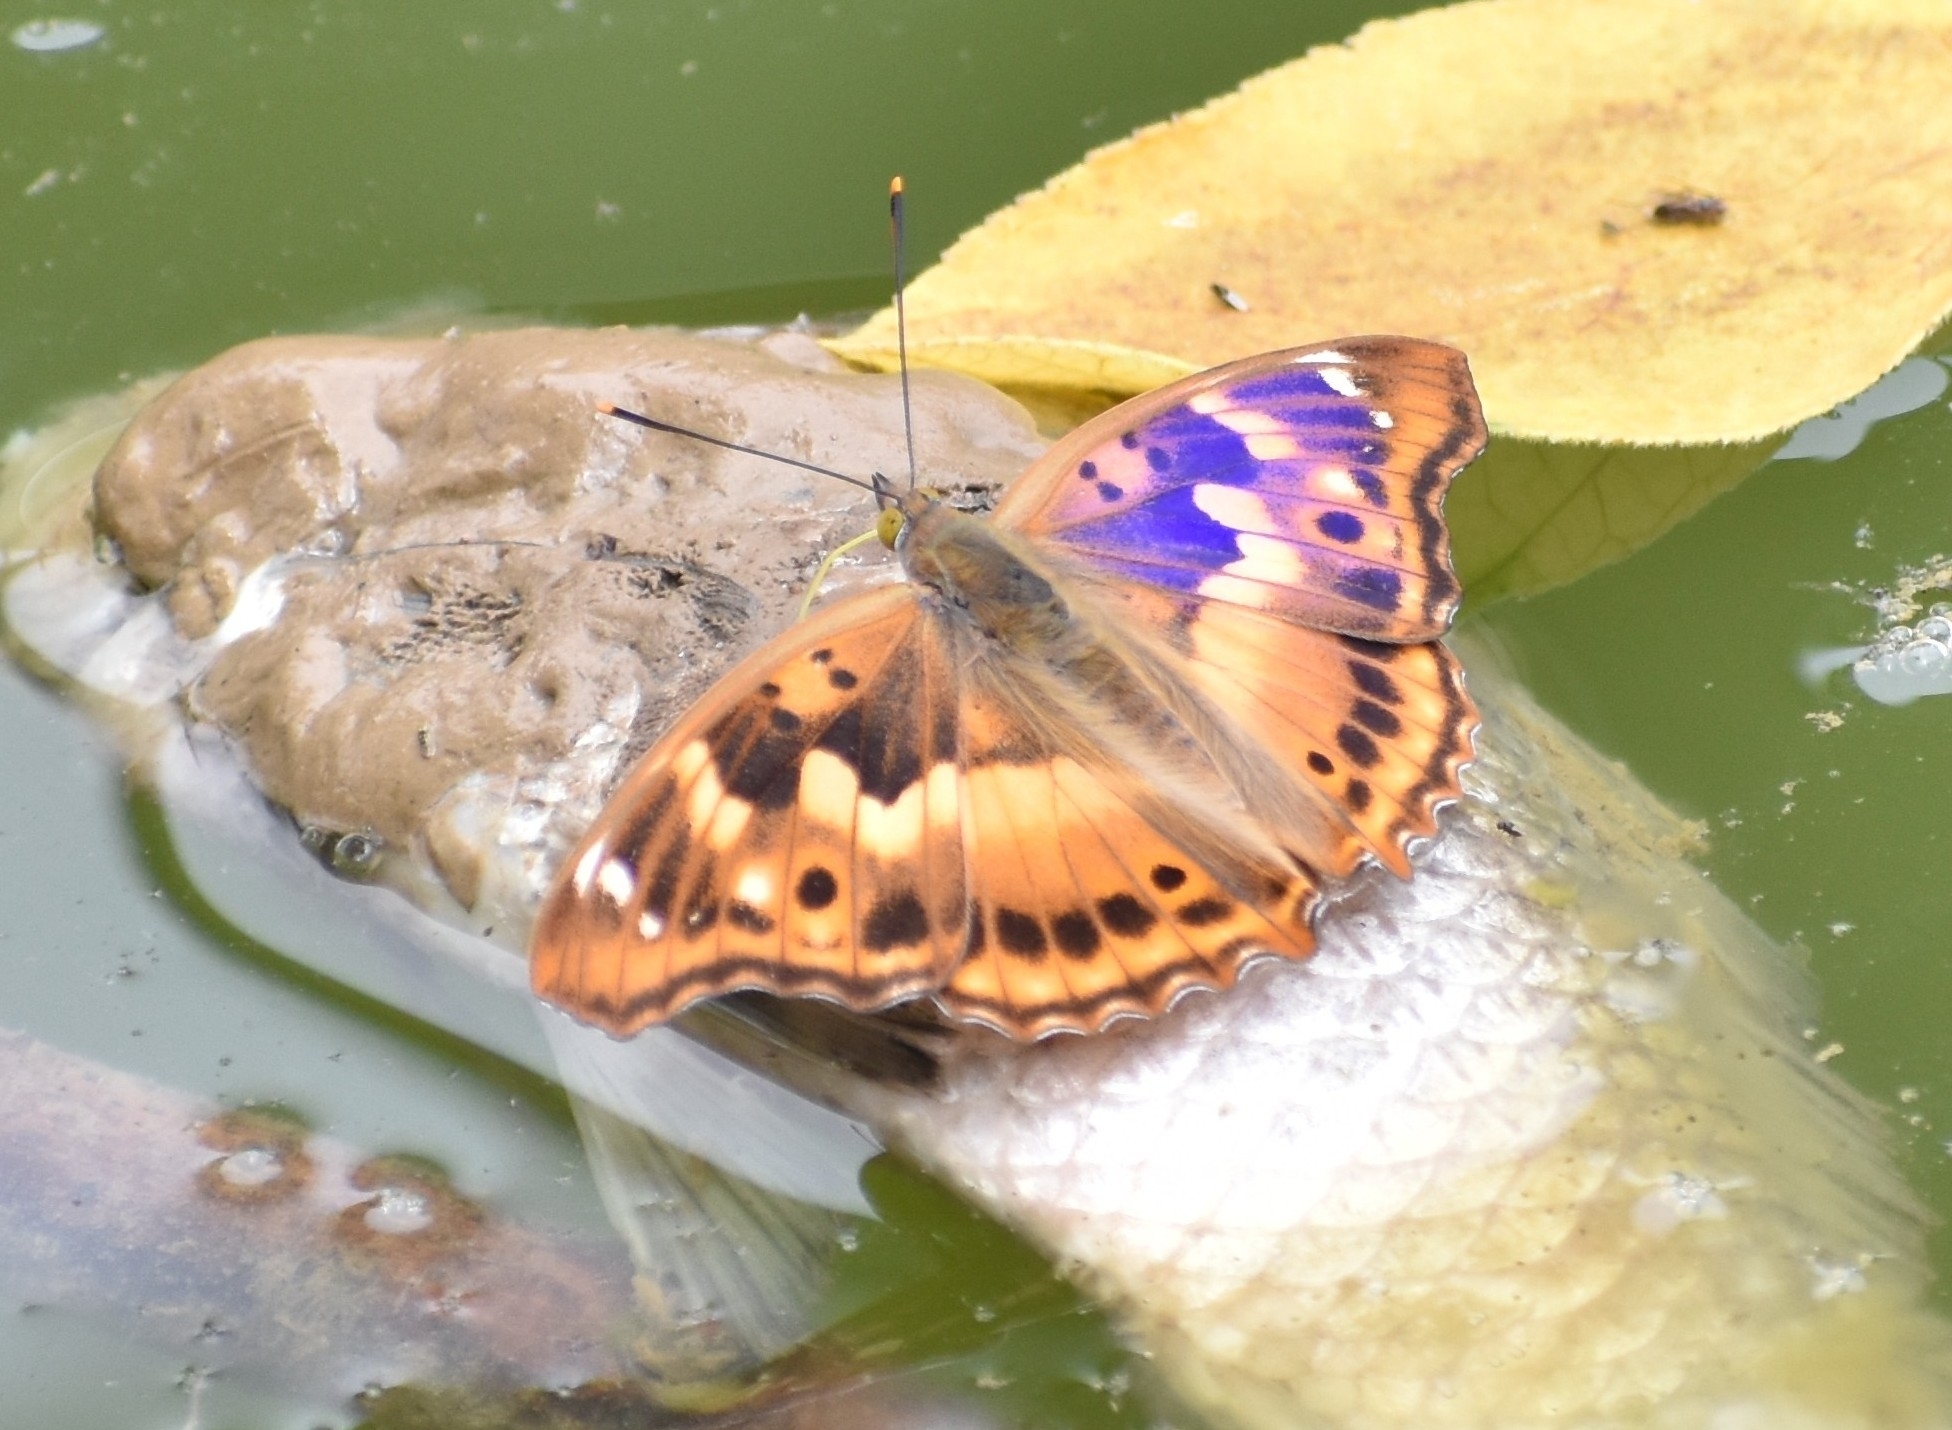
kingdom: Animalia
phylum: Arthropoda
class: Insecta
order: Lepidoptera
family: Nymphalidae
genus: Apatura
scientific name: Apatura ilia
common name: Lesser purple emperor
